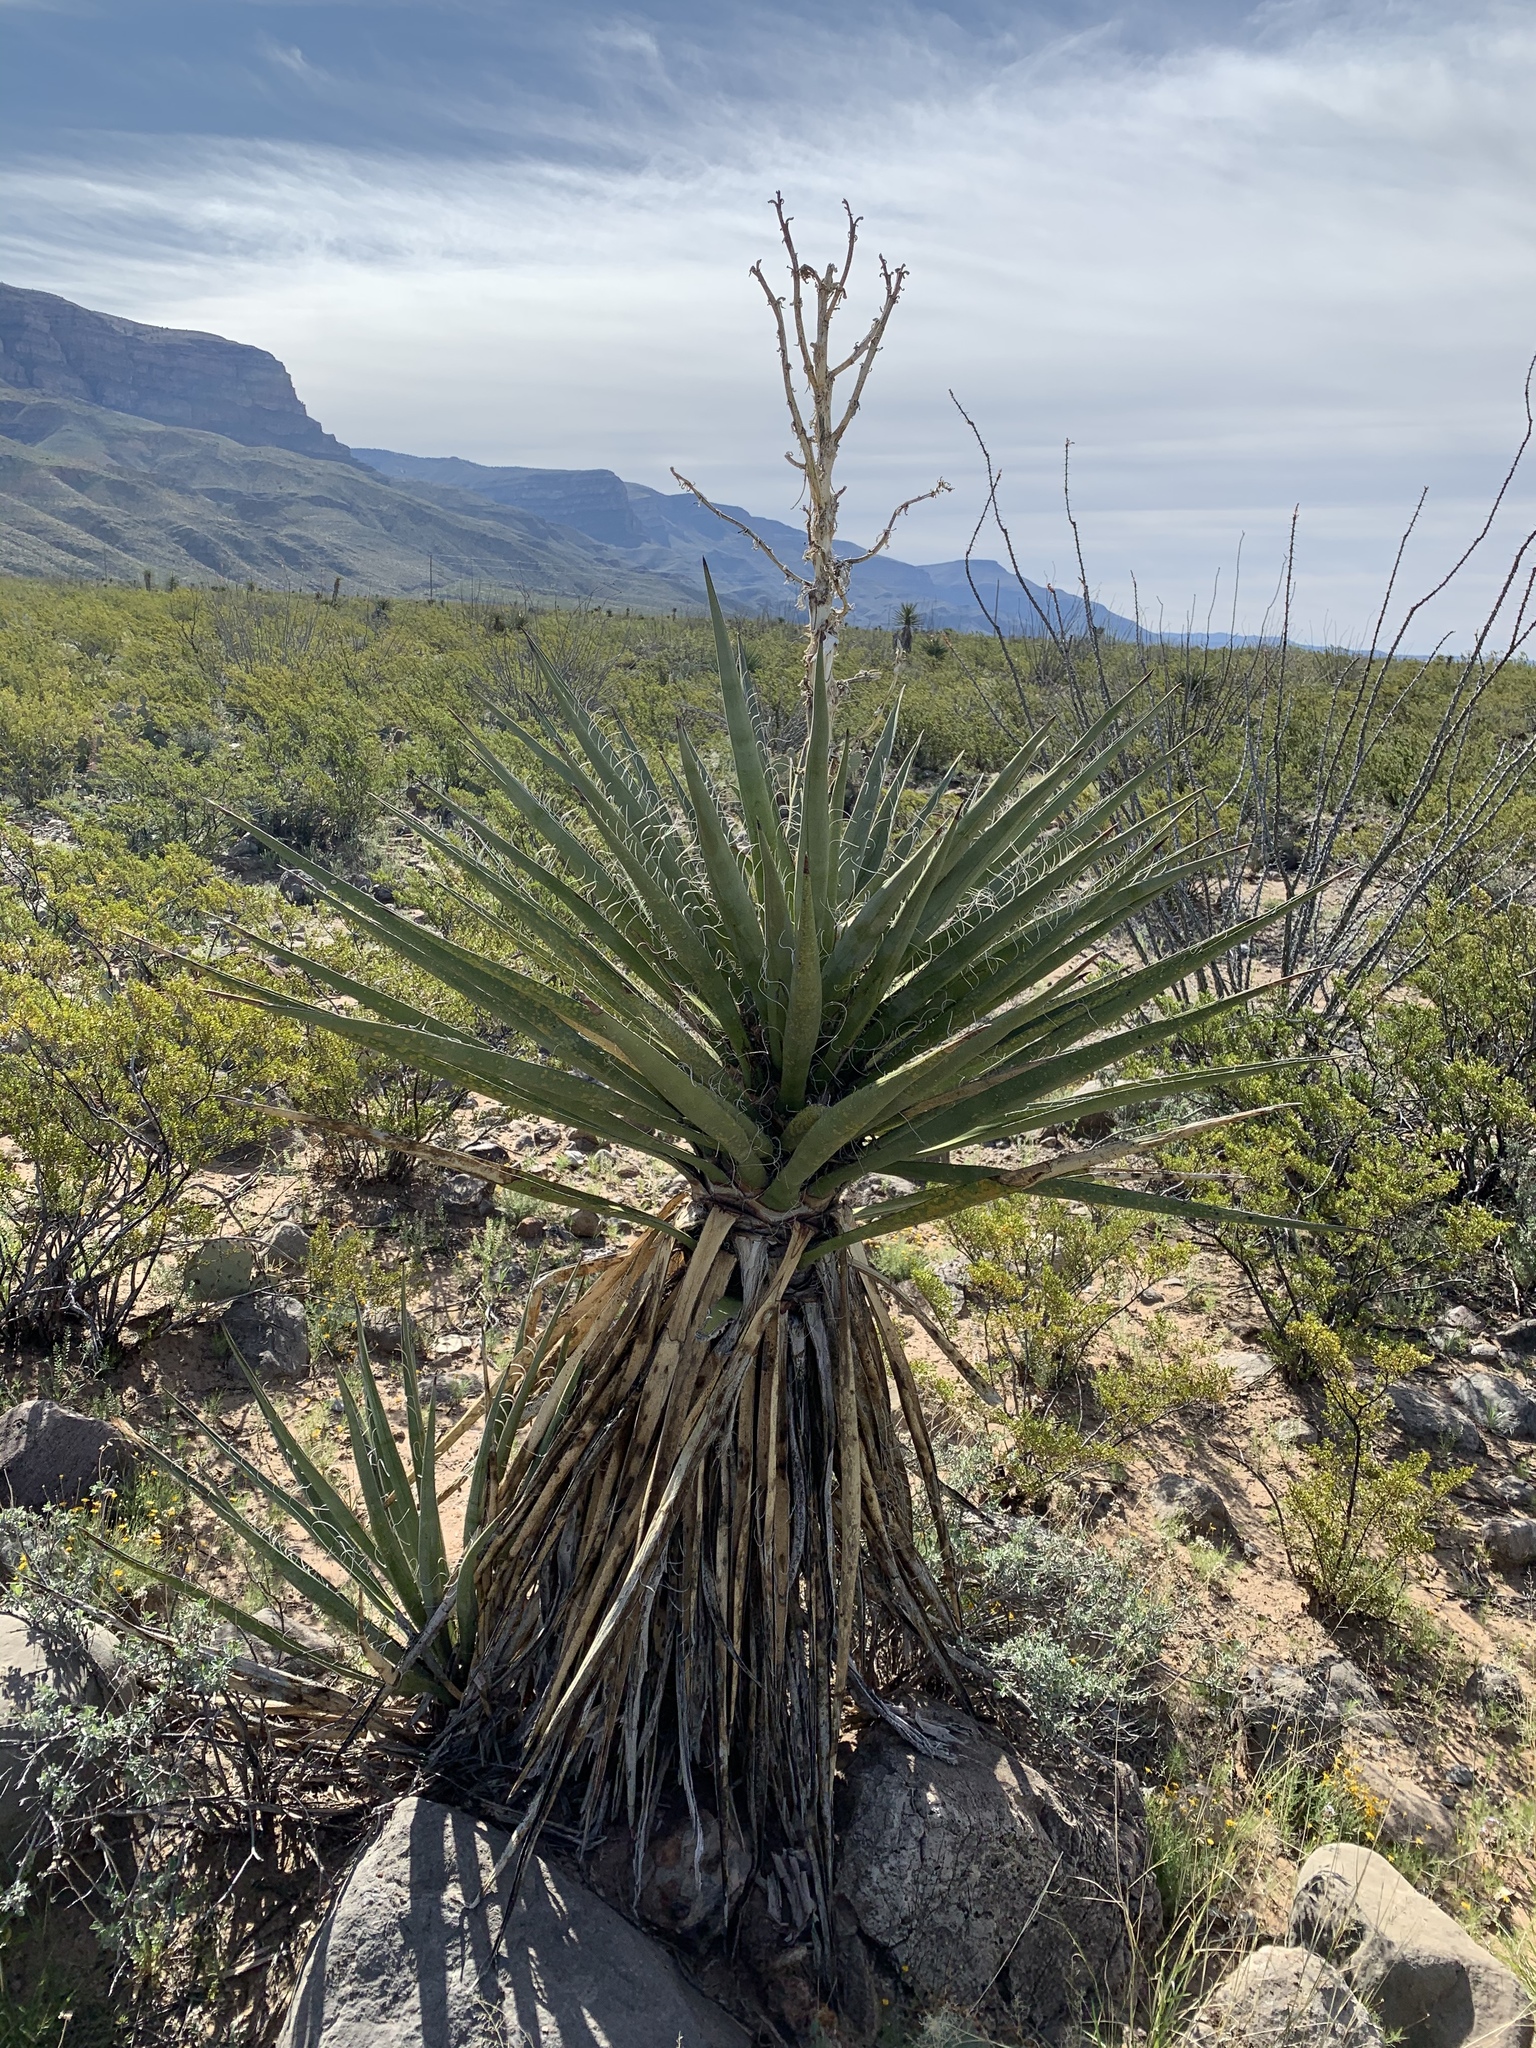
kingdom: Plantae
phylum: Tracheophyta
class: Liliopsida
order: Asparagales
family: Asparagaceae
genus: Yucca
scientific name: Yucca treculiana
